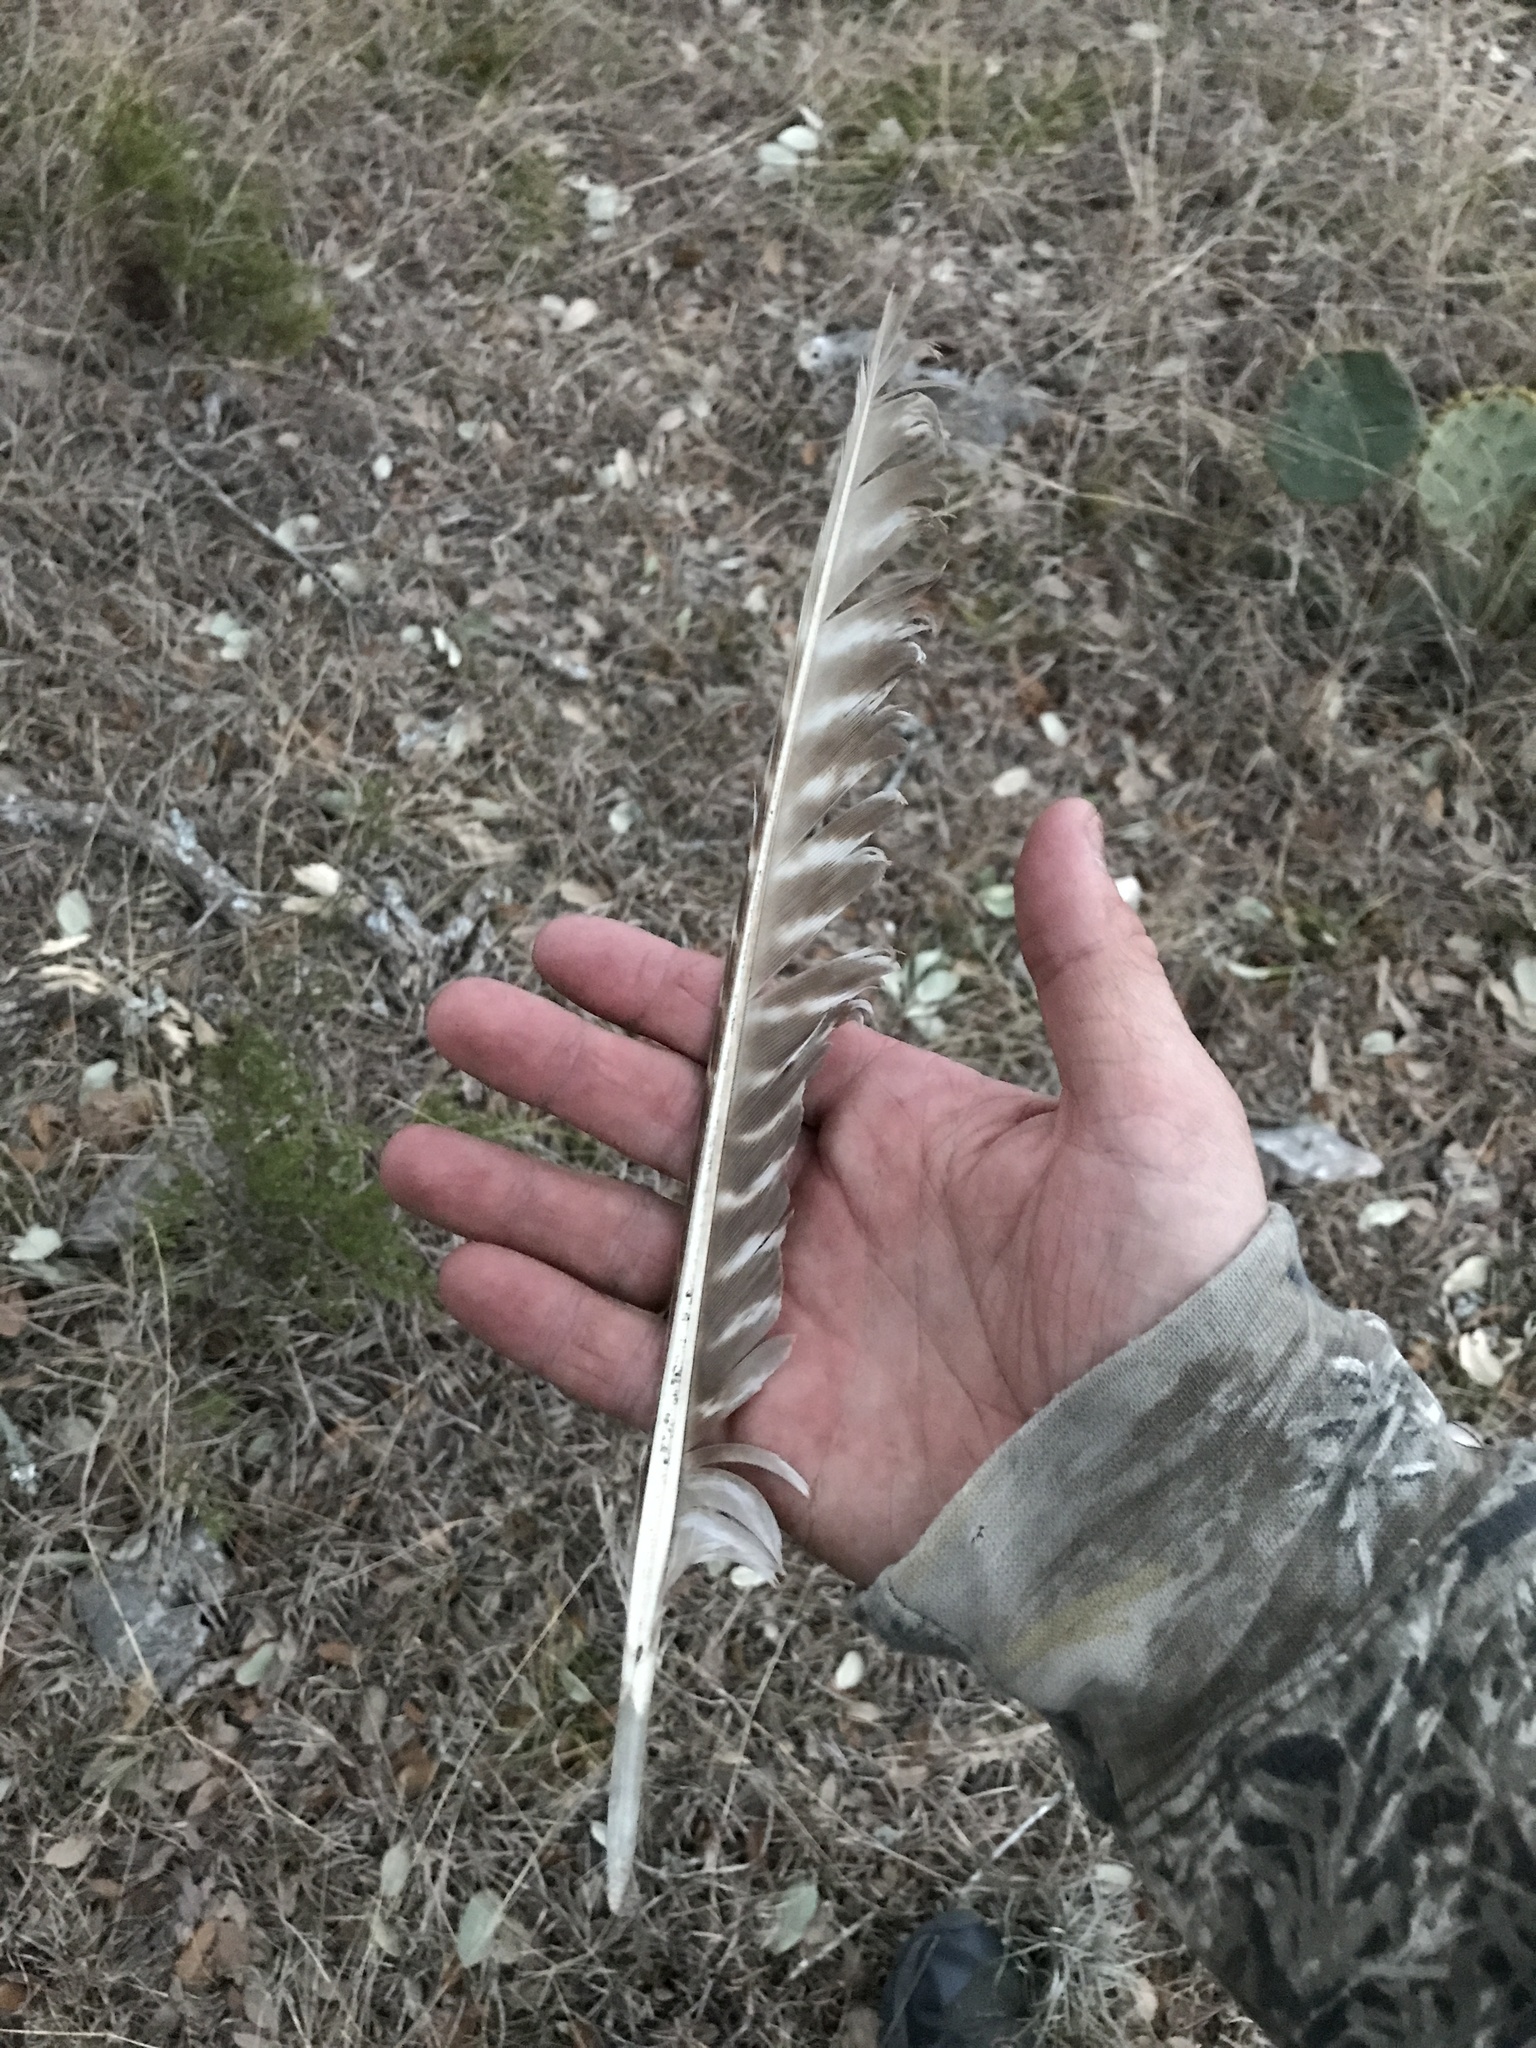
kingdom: Animalia
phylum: Chordata
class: Aves
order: Galliformes
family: Phasianidae
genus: Meleagris
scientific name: Meleagris gallopavo
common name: Wild turkey
